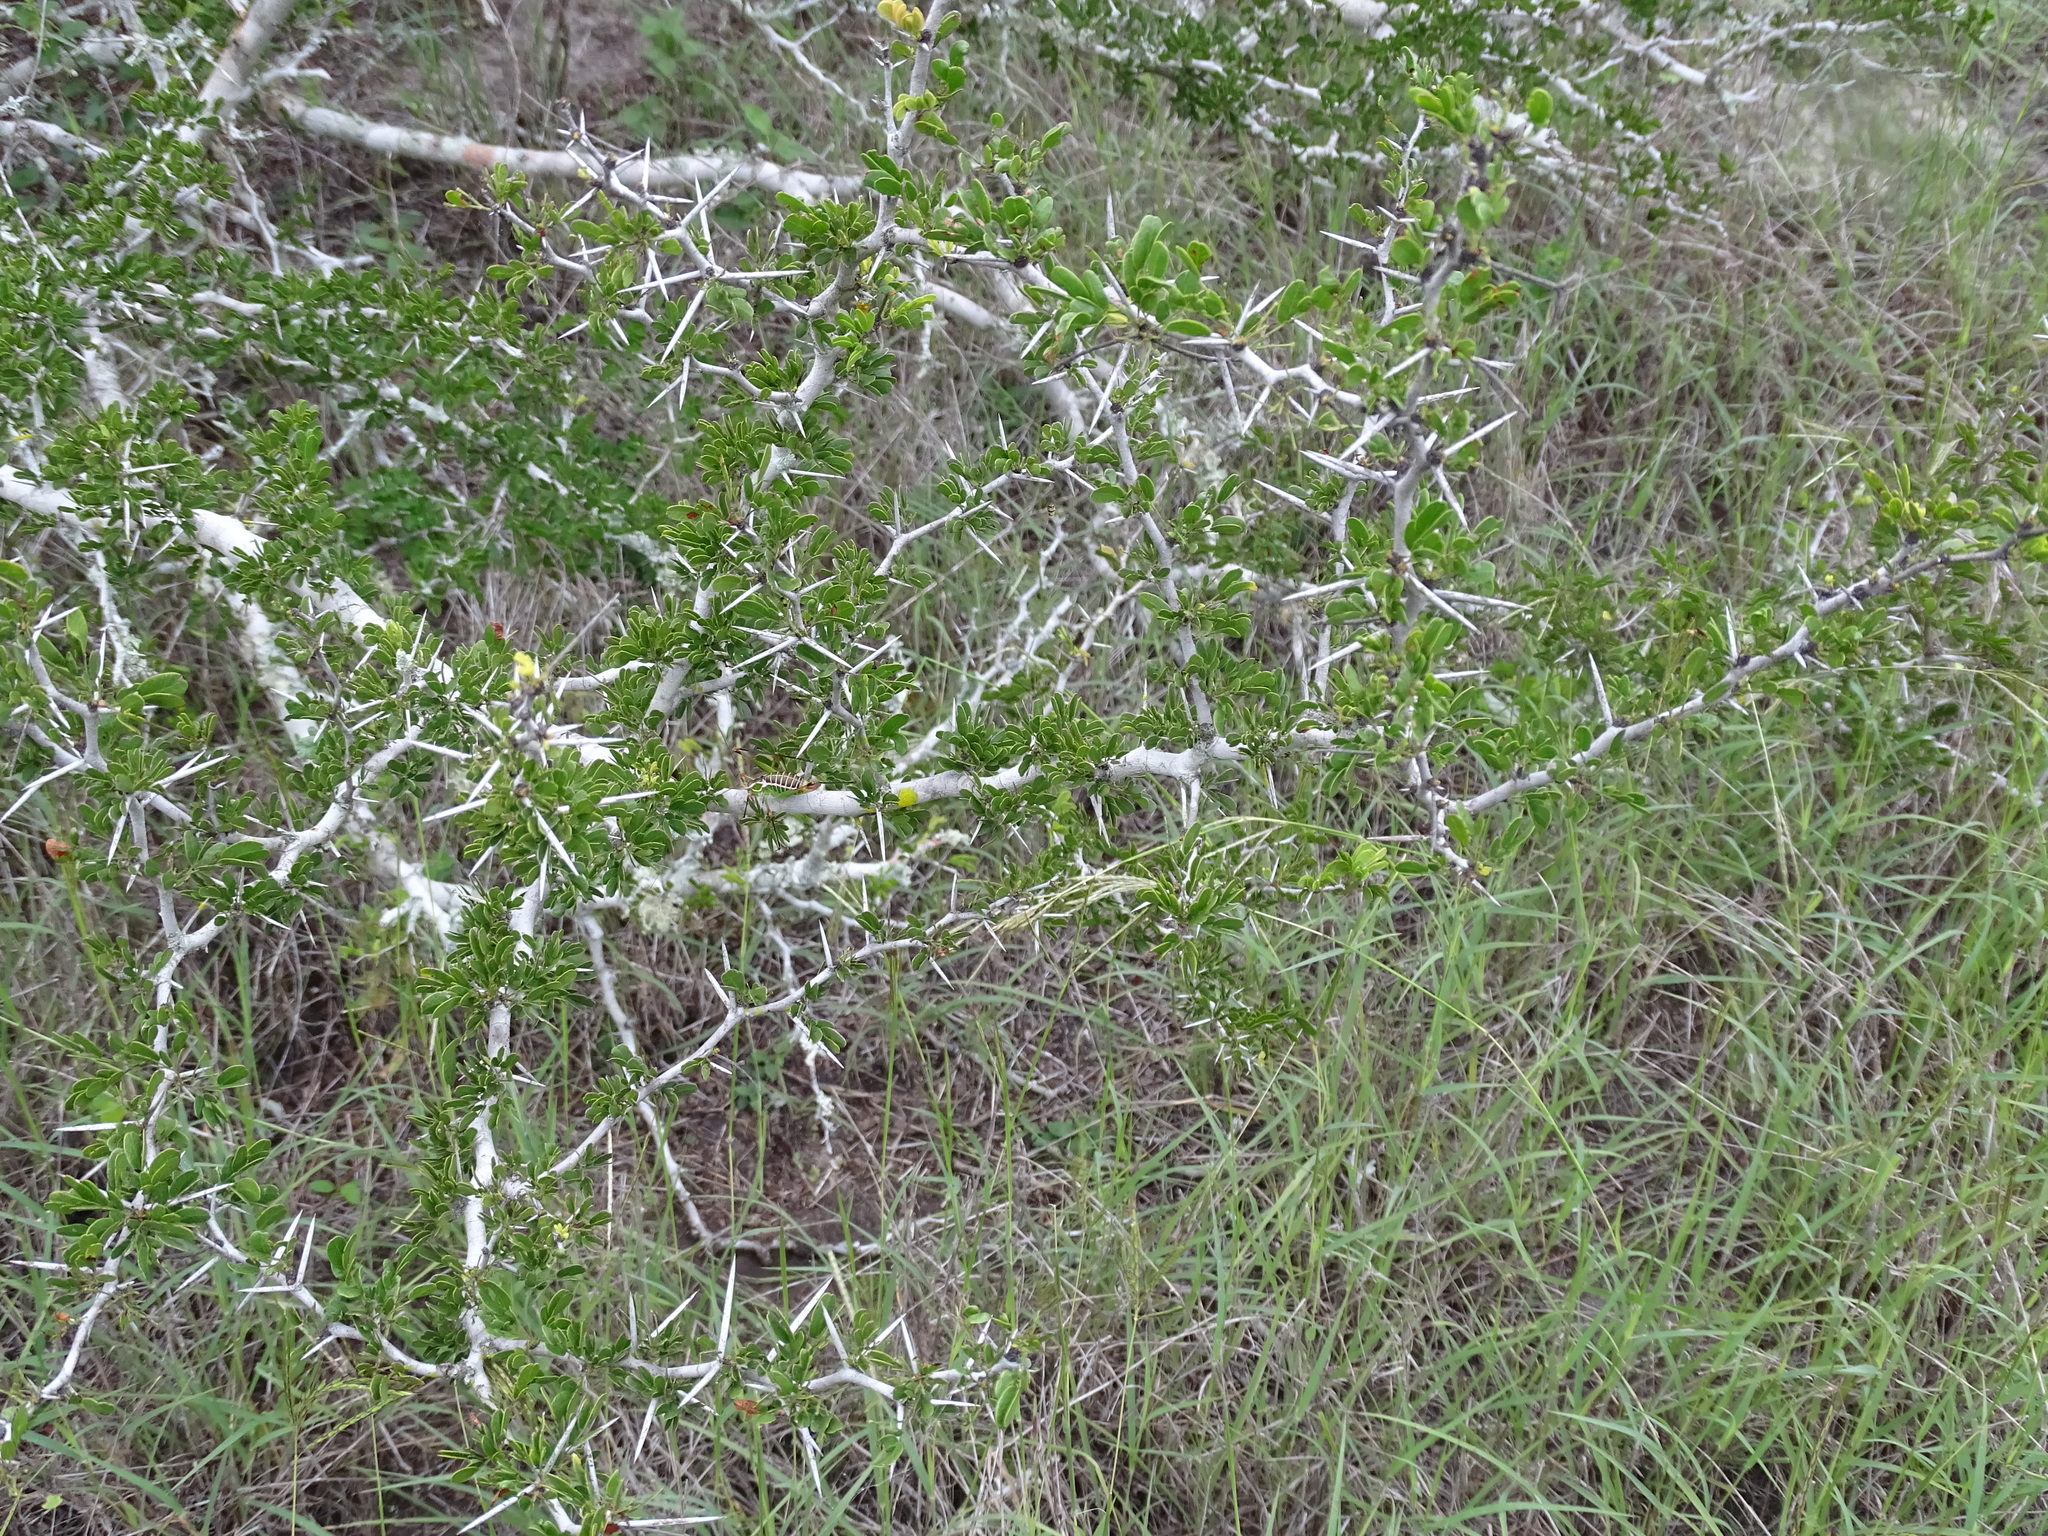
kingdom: Plantae
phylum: Tracheophyta
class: Magnoliopsida
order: Fabales
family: Fabaceae
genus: Vachellia
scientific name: Vachellia rigidula
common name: Blackbrush
